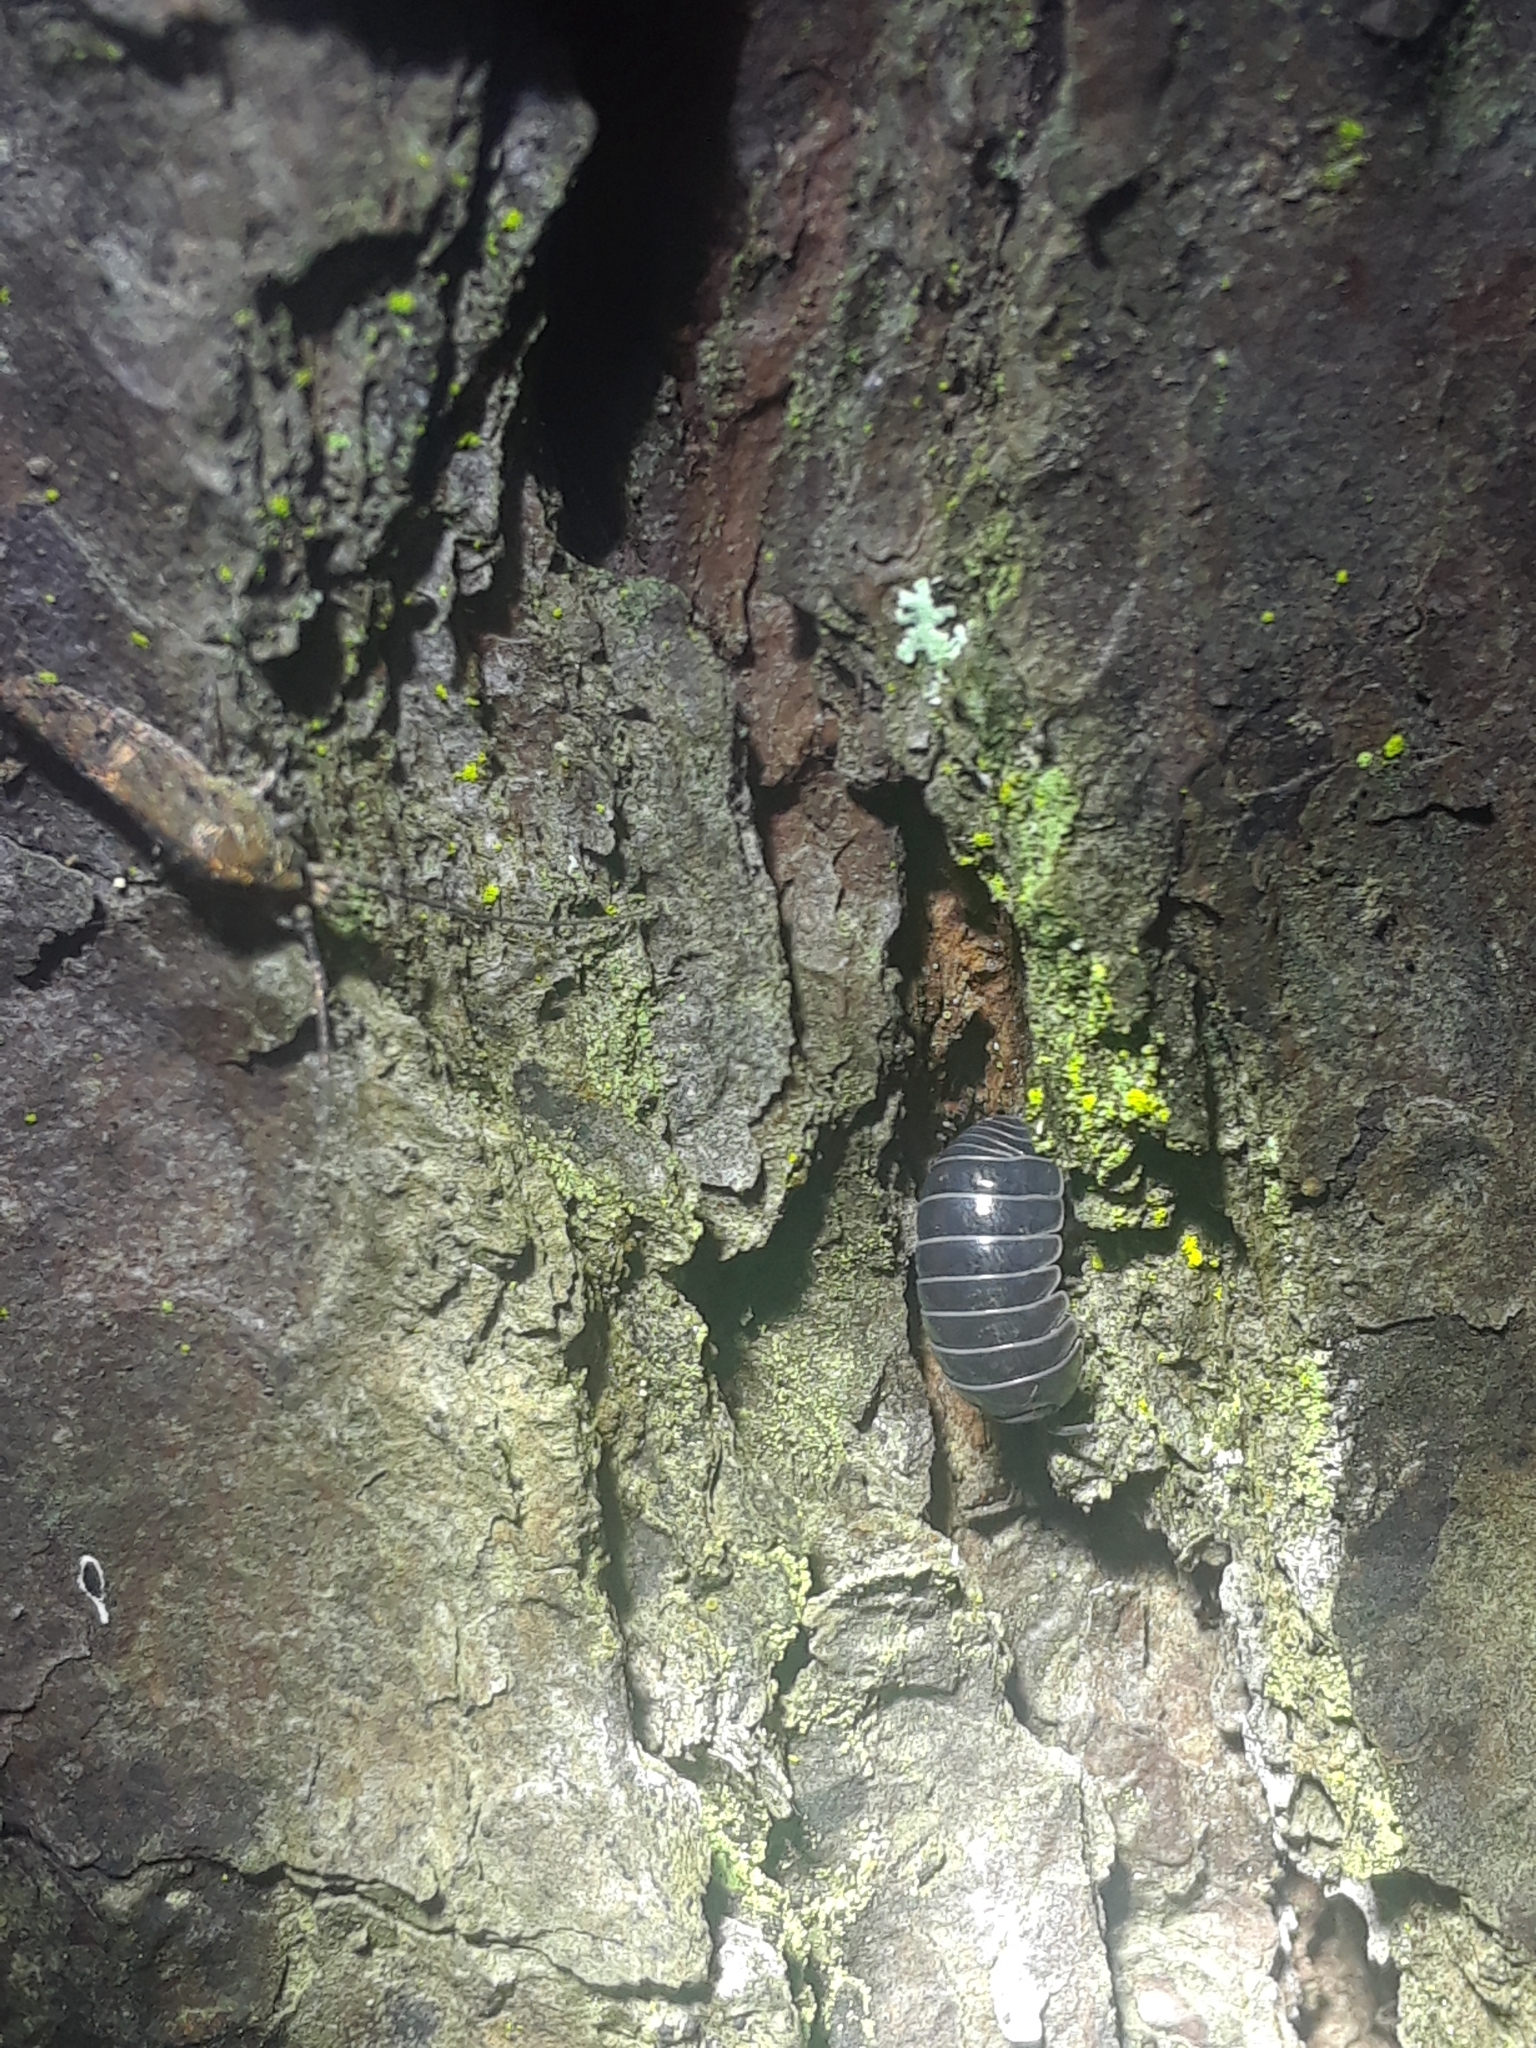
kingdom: Animalia
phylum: Arthropoda
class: Malacostraca
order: Isopoda
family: Armadillidiidae
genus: Armadillidium
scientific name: Armadillidium vulgare
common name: Common pill woodlouse
